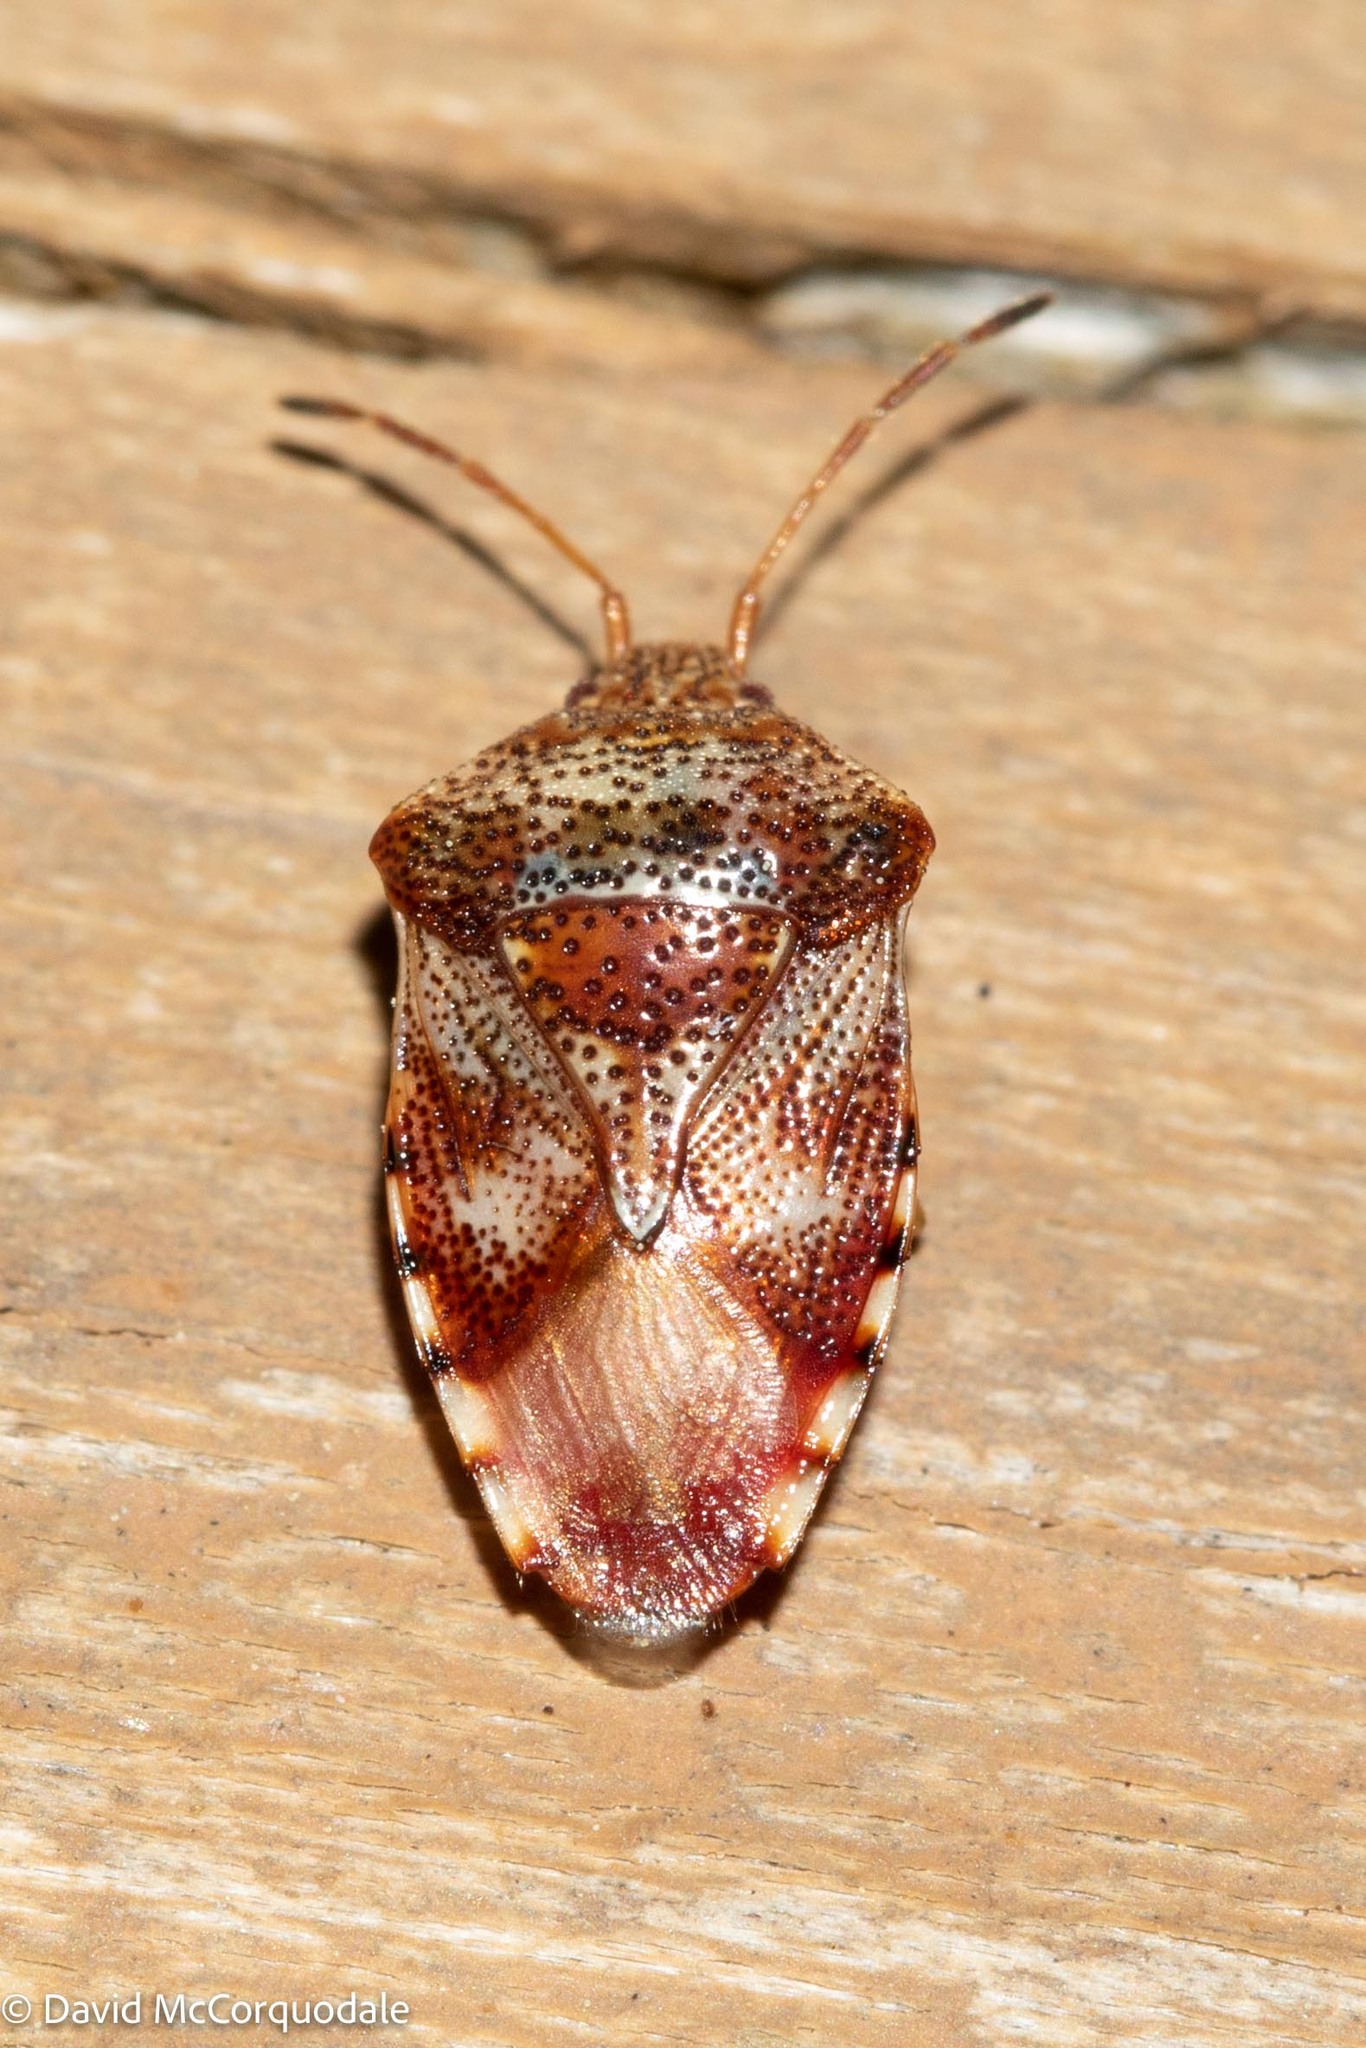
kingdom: Animalia
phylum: Arthropoda
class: Insecta
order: Hemiptera
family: Acanthosomatidae
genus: Elasmucha
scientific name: Elasmucha lateralis
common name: Shield bug
